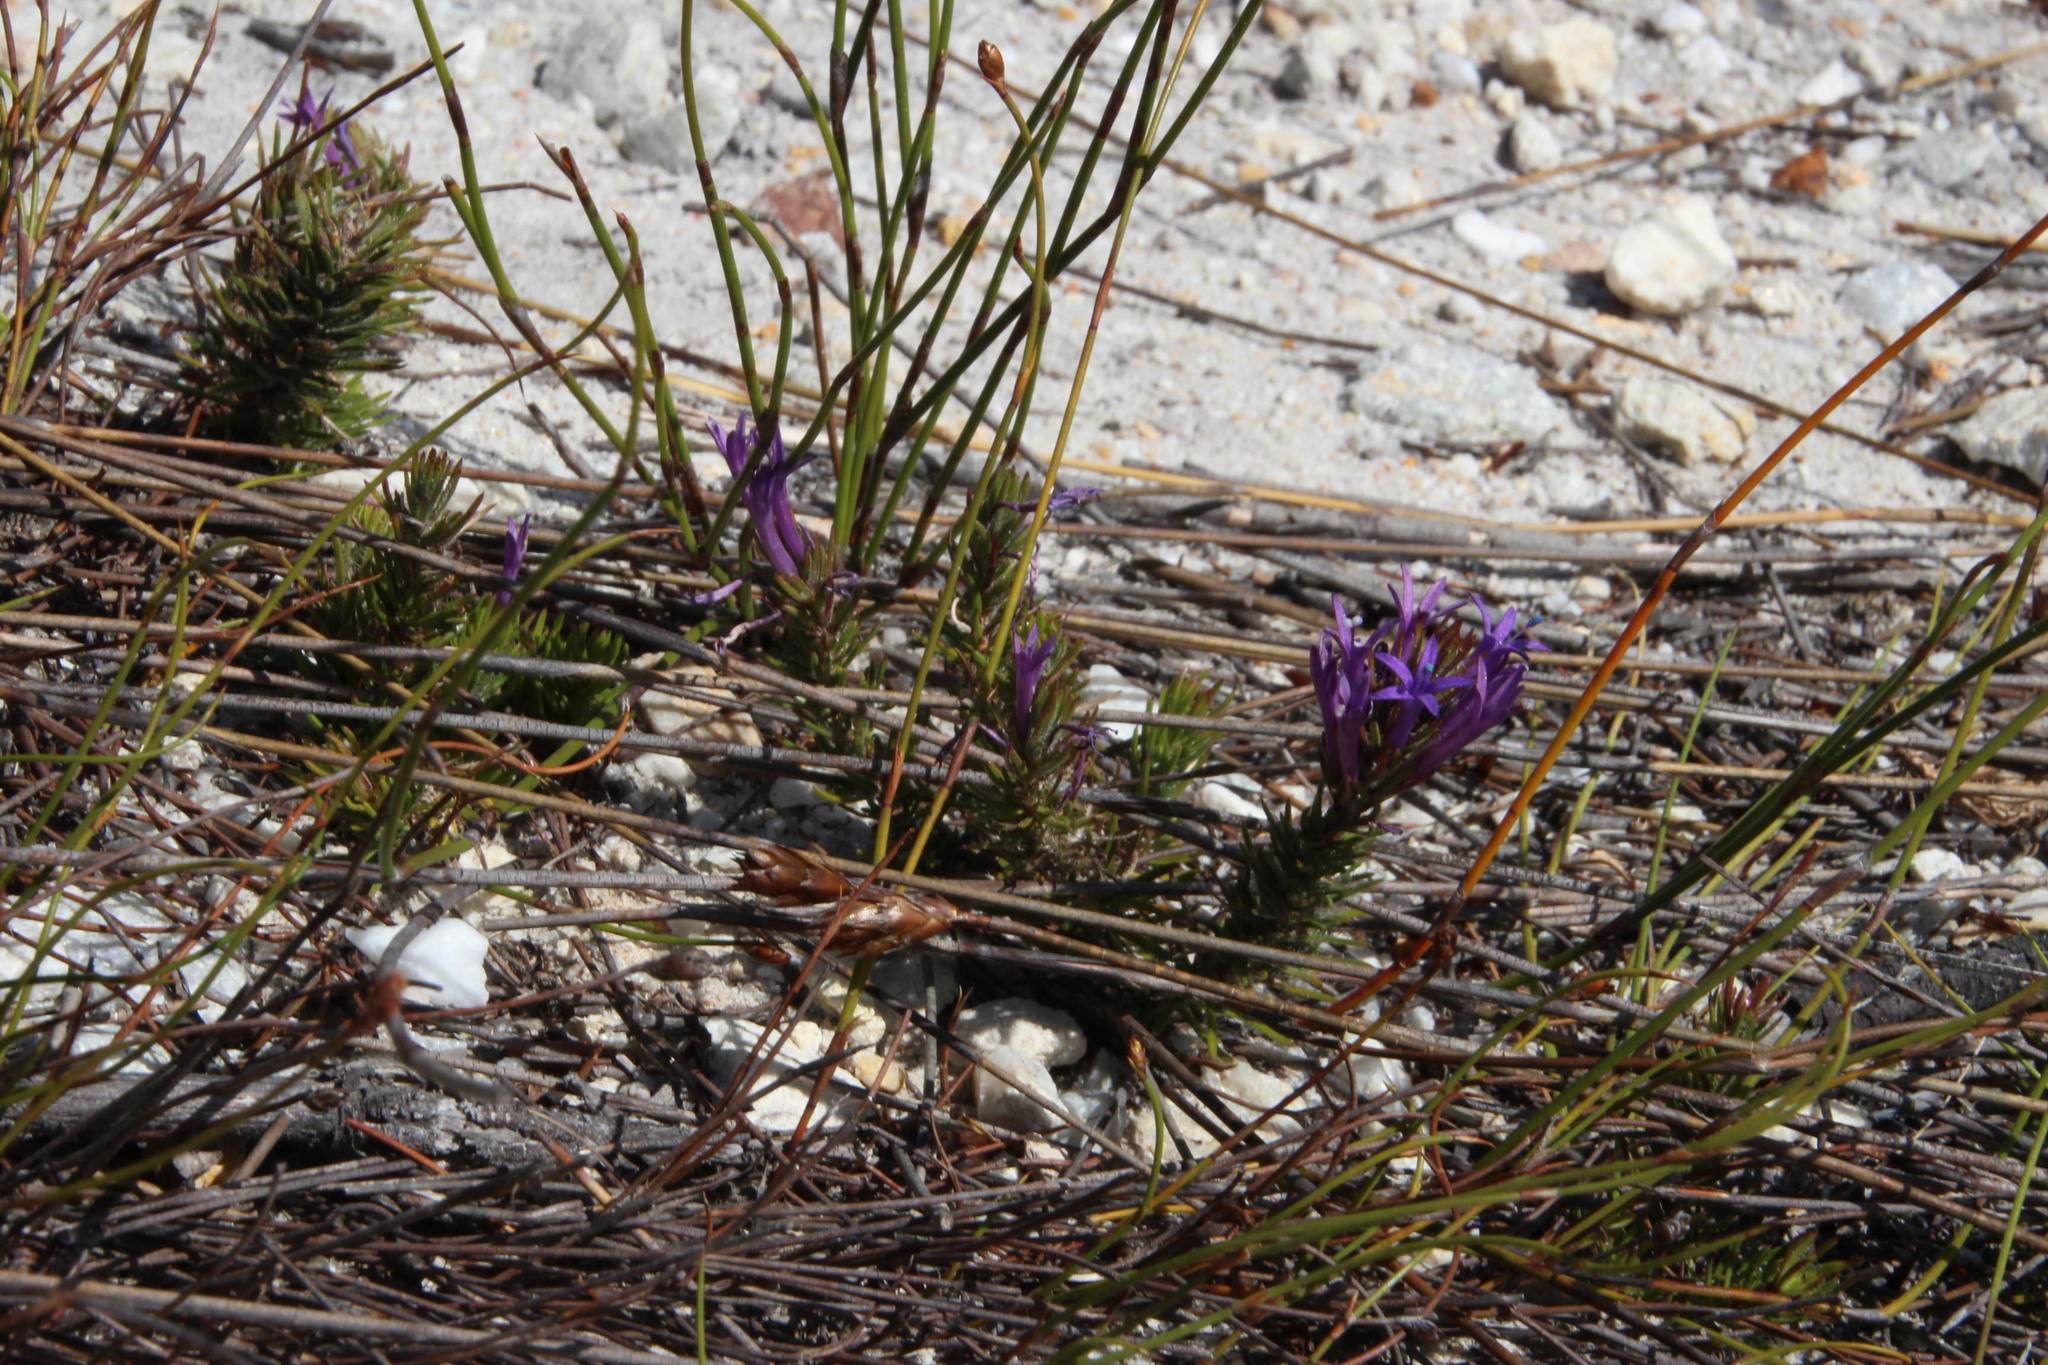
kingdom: Plantae
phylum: Tracheophyta
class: Magnoliopsida
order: Asterales
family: Campanulaceae
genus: Merciera
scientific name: Merciera azurea
